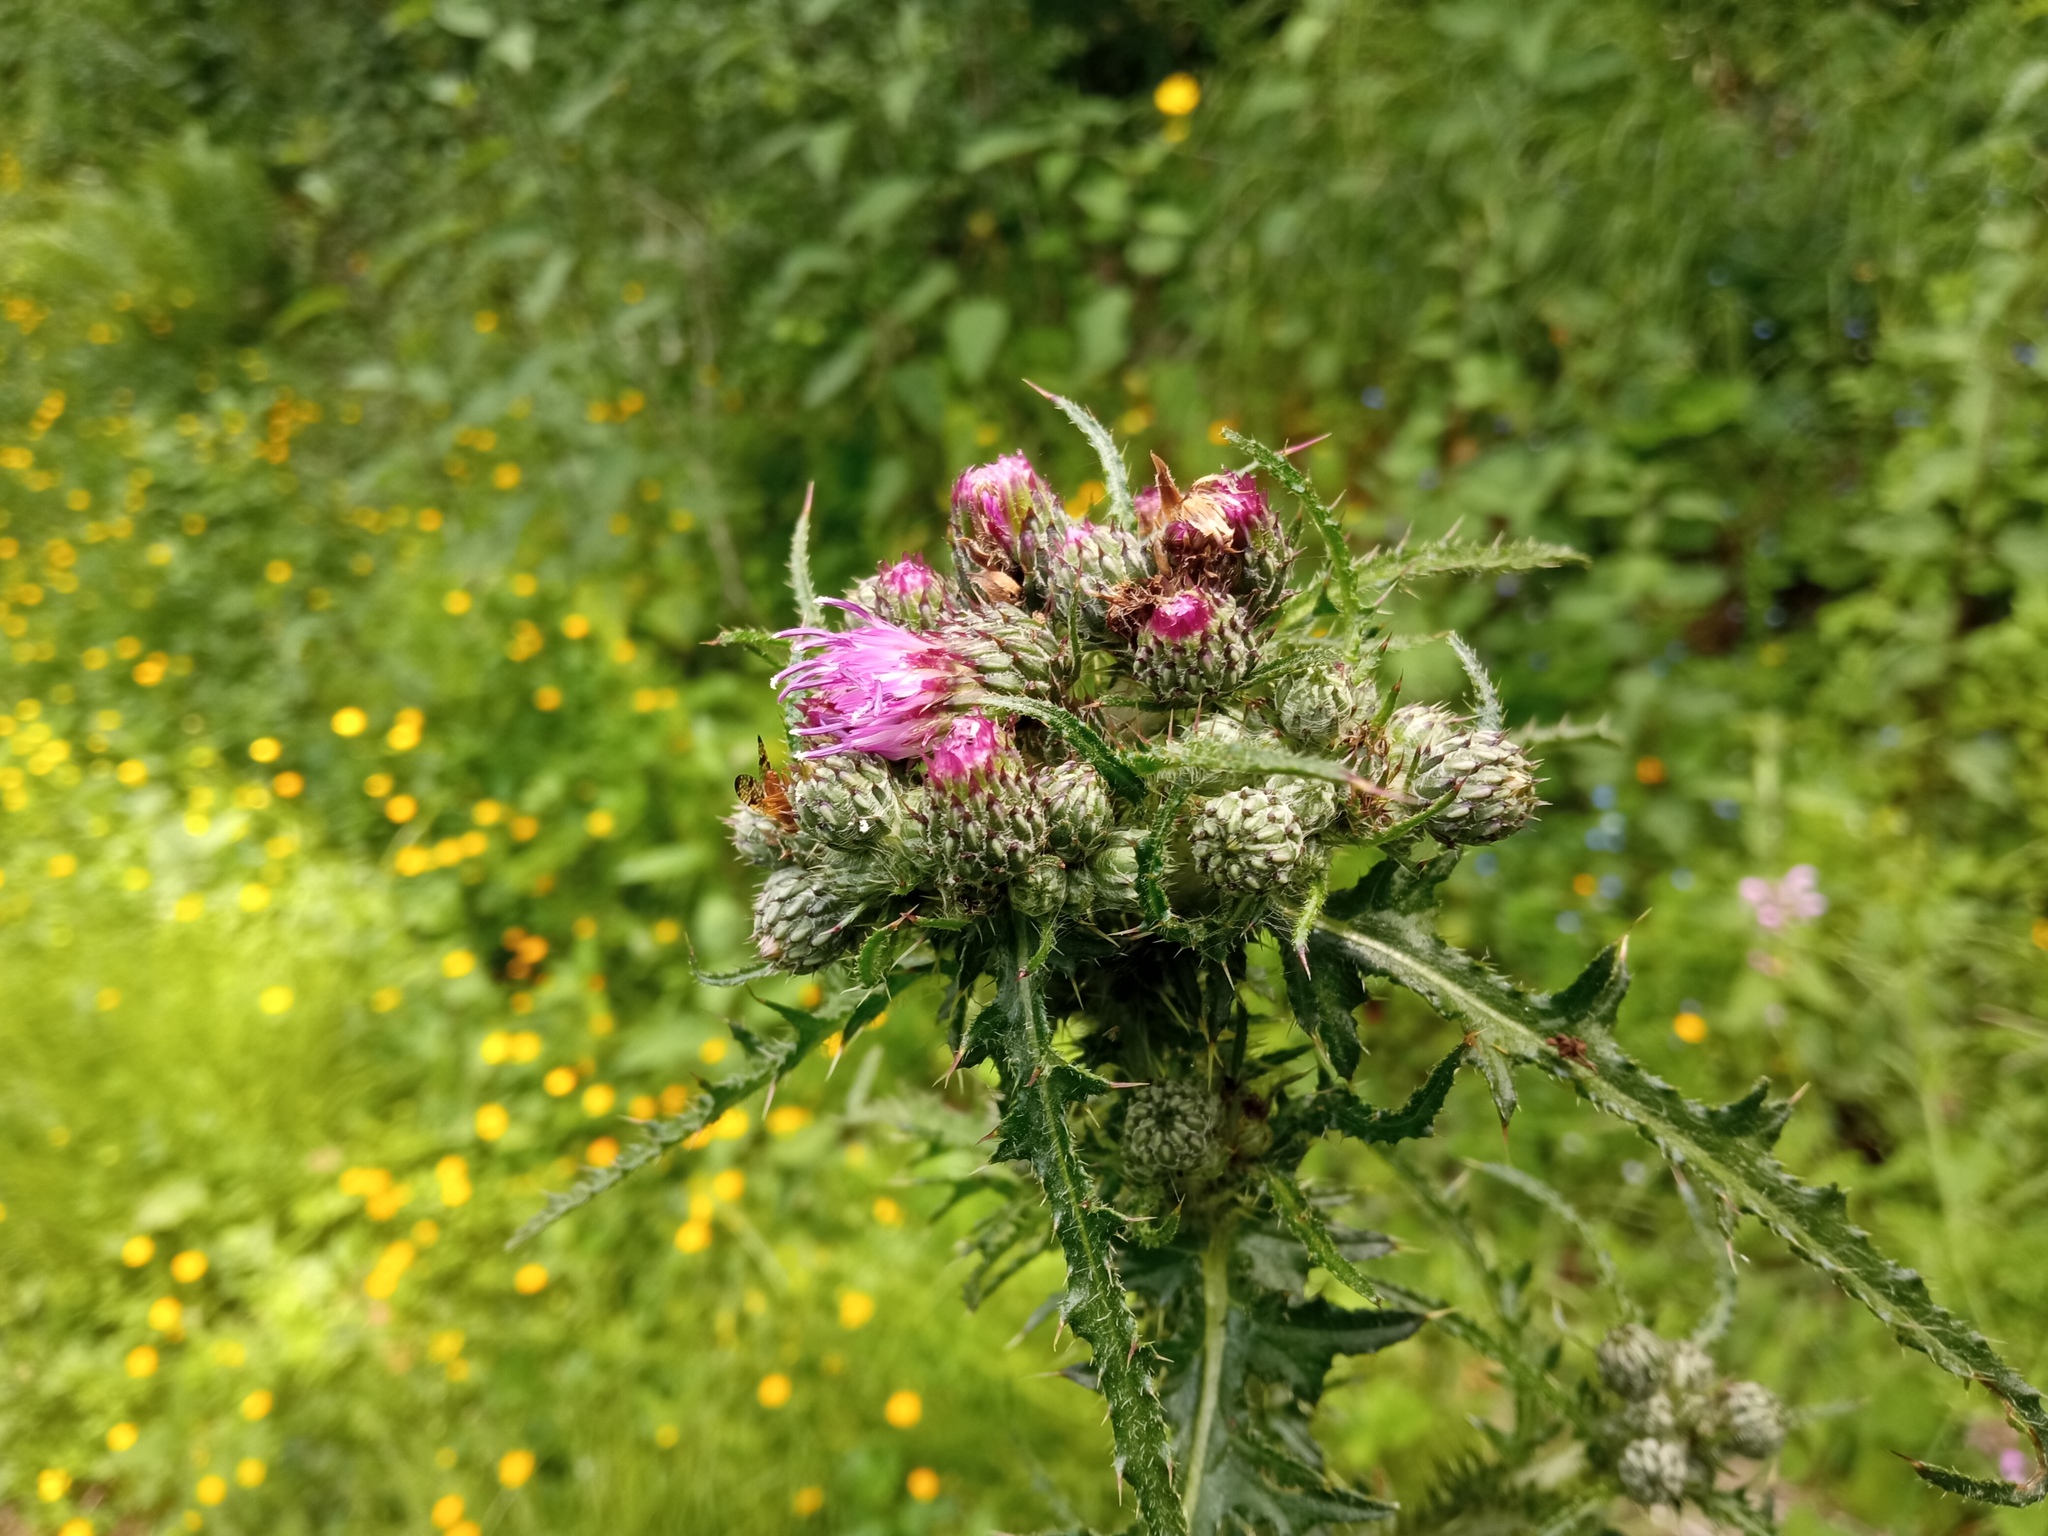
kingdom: Plantae
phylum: Tracheophyta
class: Magnoliopsida
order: Asterales
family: Asteraceae
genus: Cirsium
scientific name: Cirsium palustre
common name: Marsh thistle
